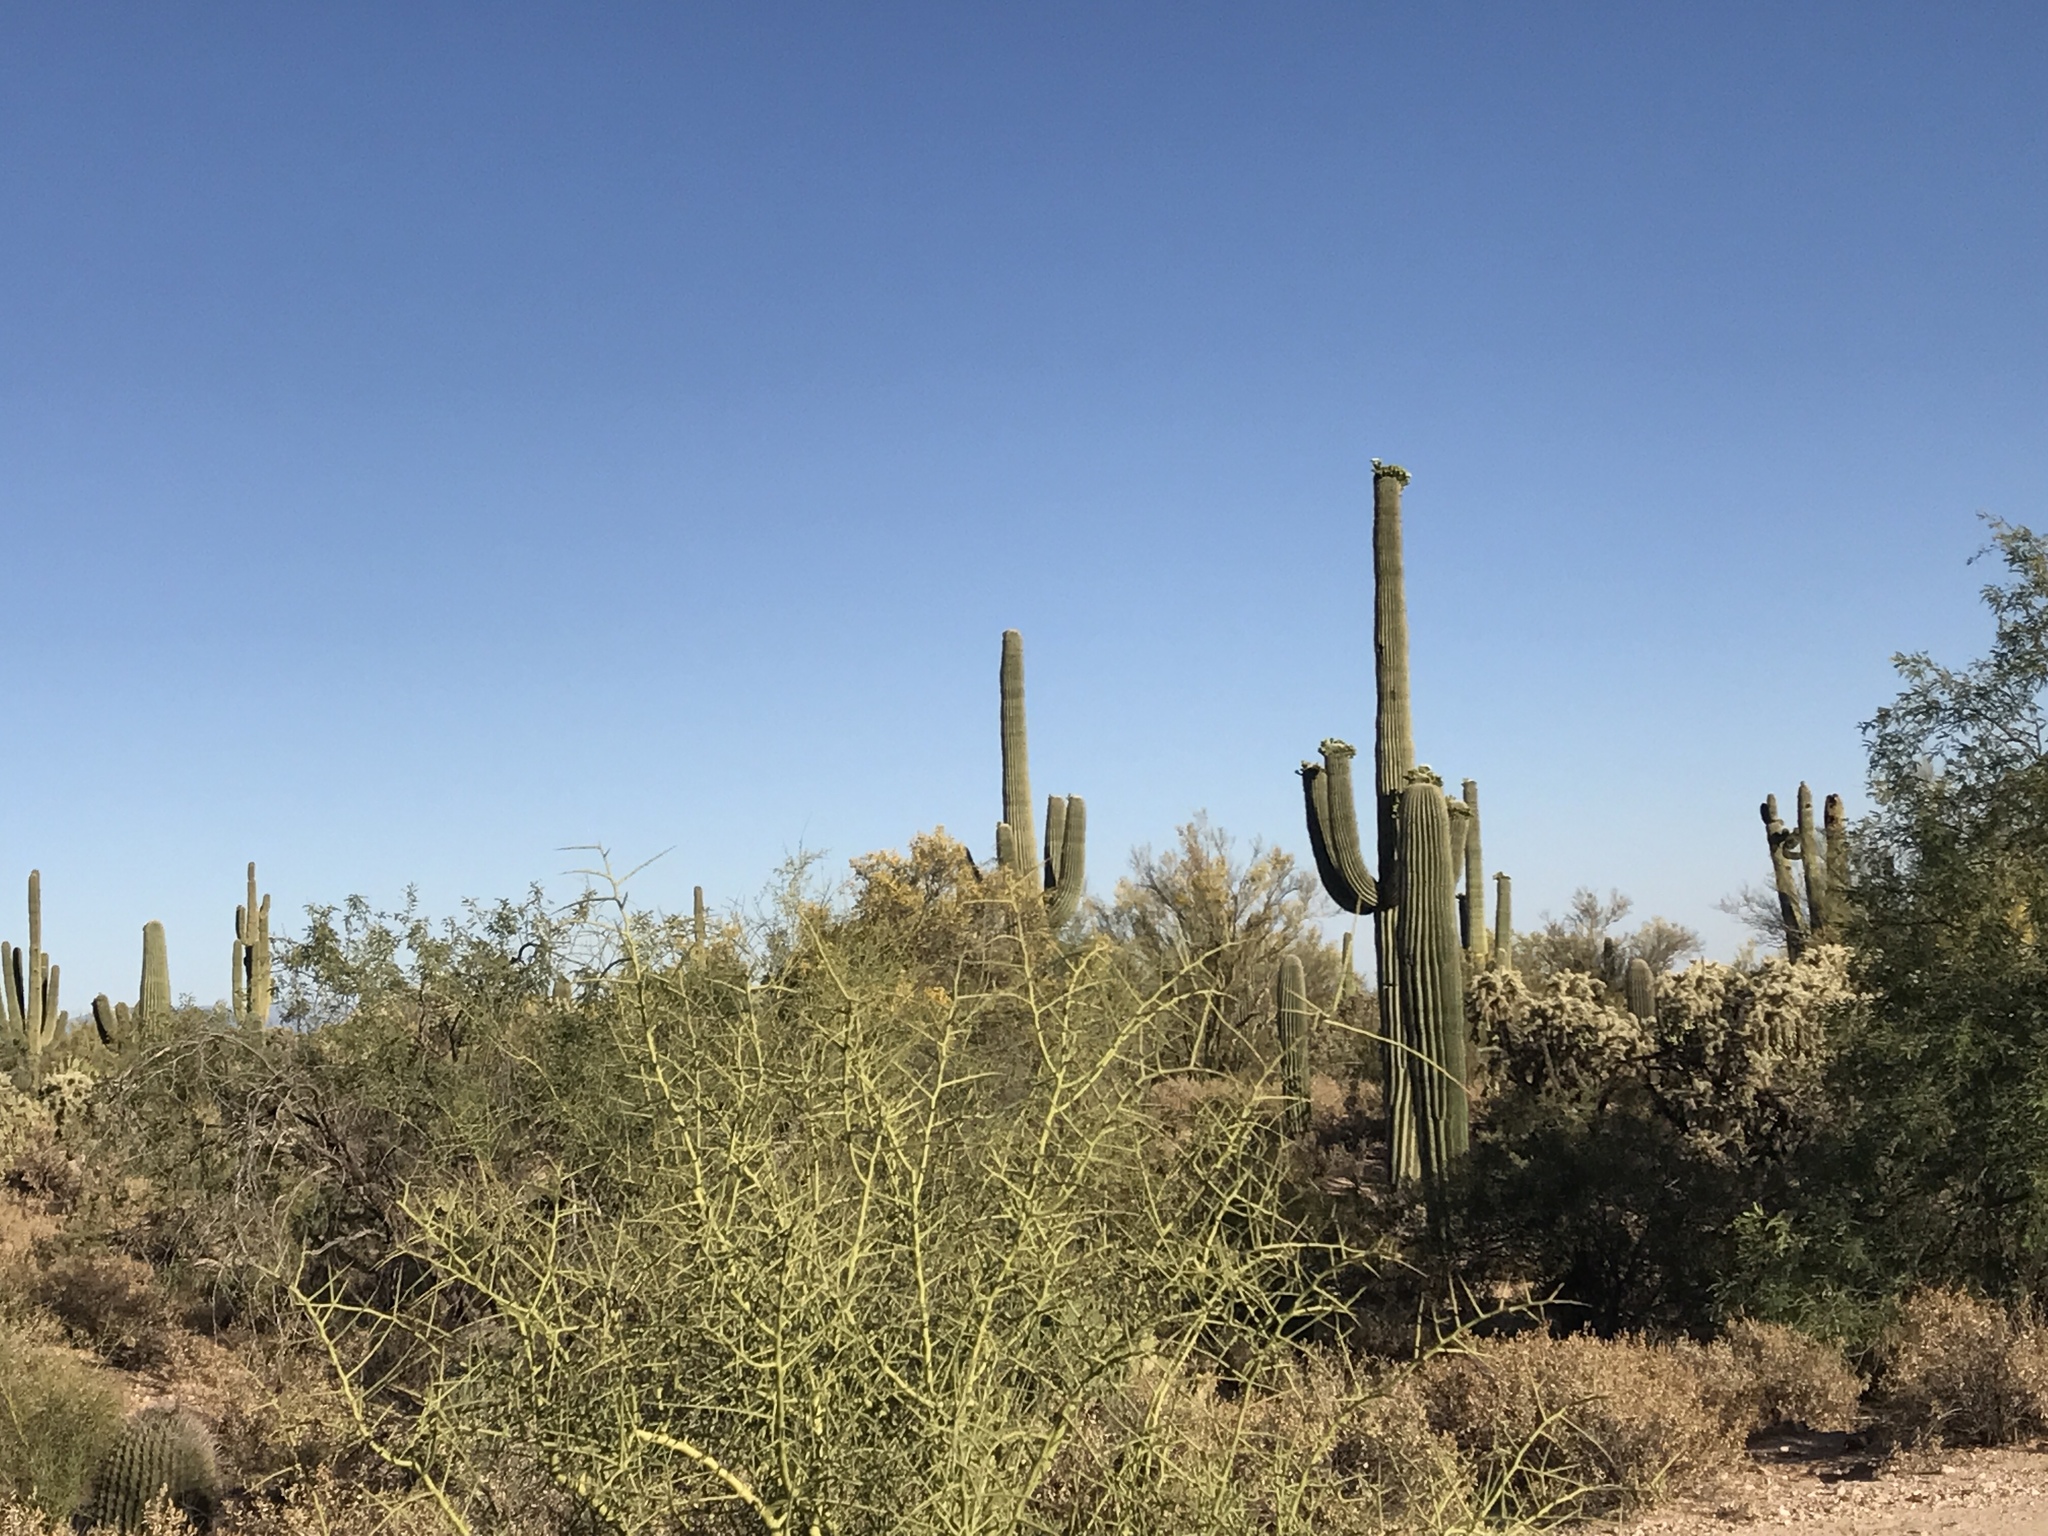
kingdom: Plantae
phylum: Tracheophyta
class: Magnoliopsida
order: Caryophyllales
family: Cactaceae
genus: Carnegiea
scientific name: Carnegiea gigantea
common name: Saguaro
